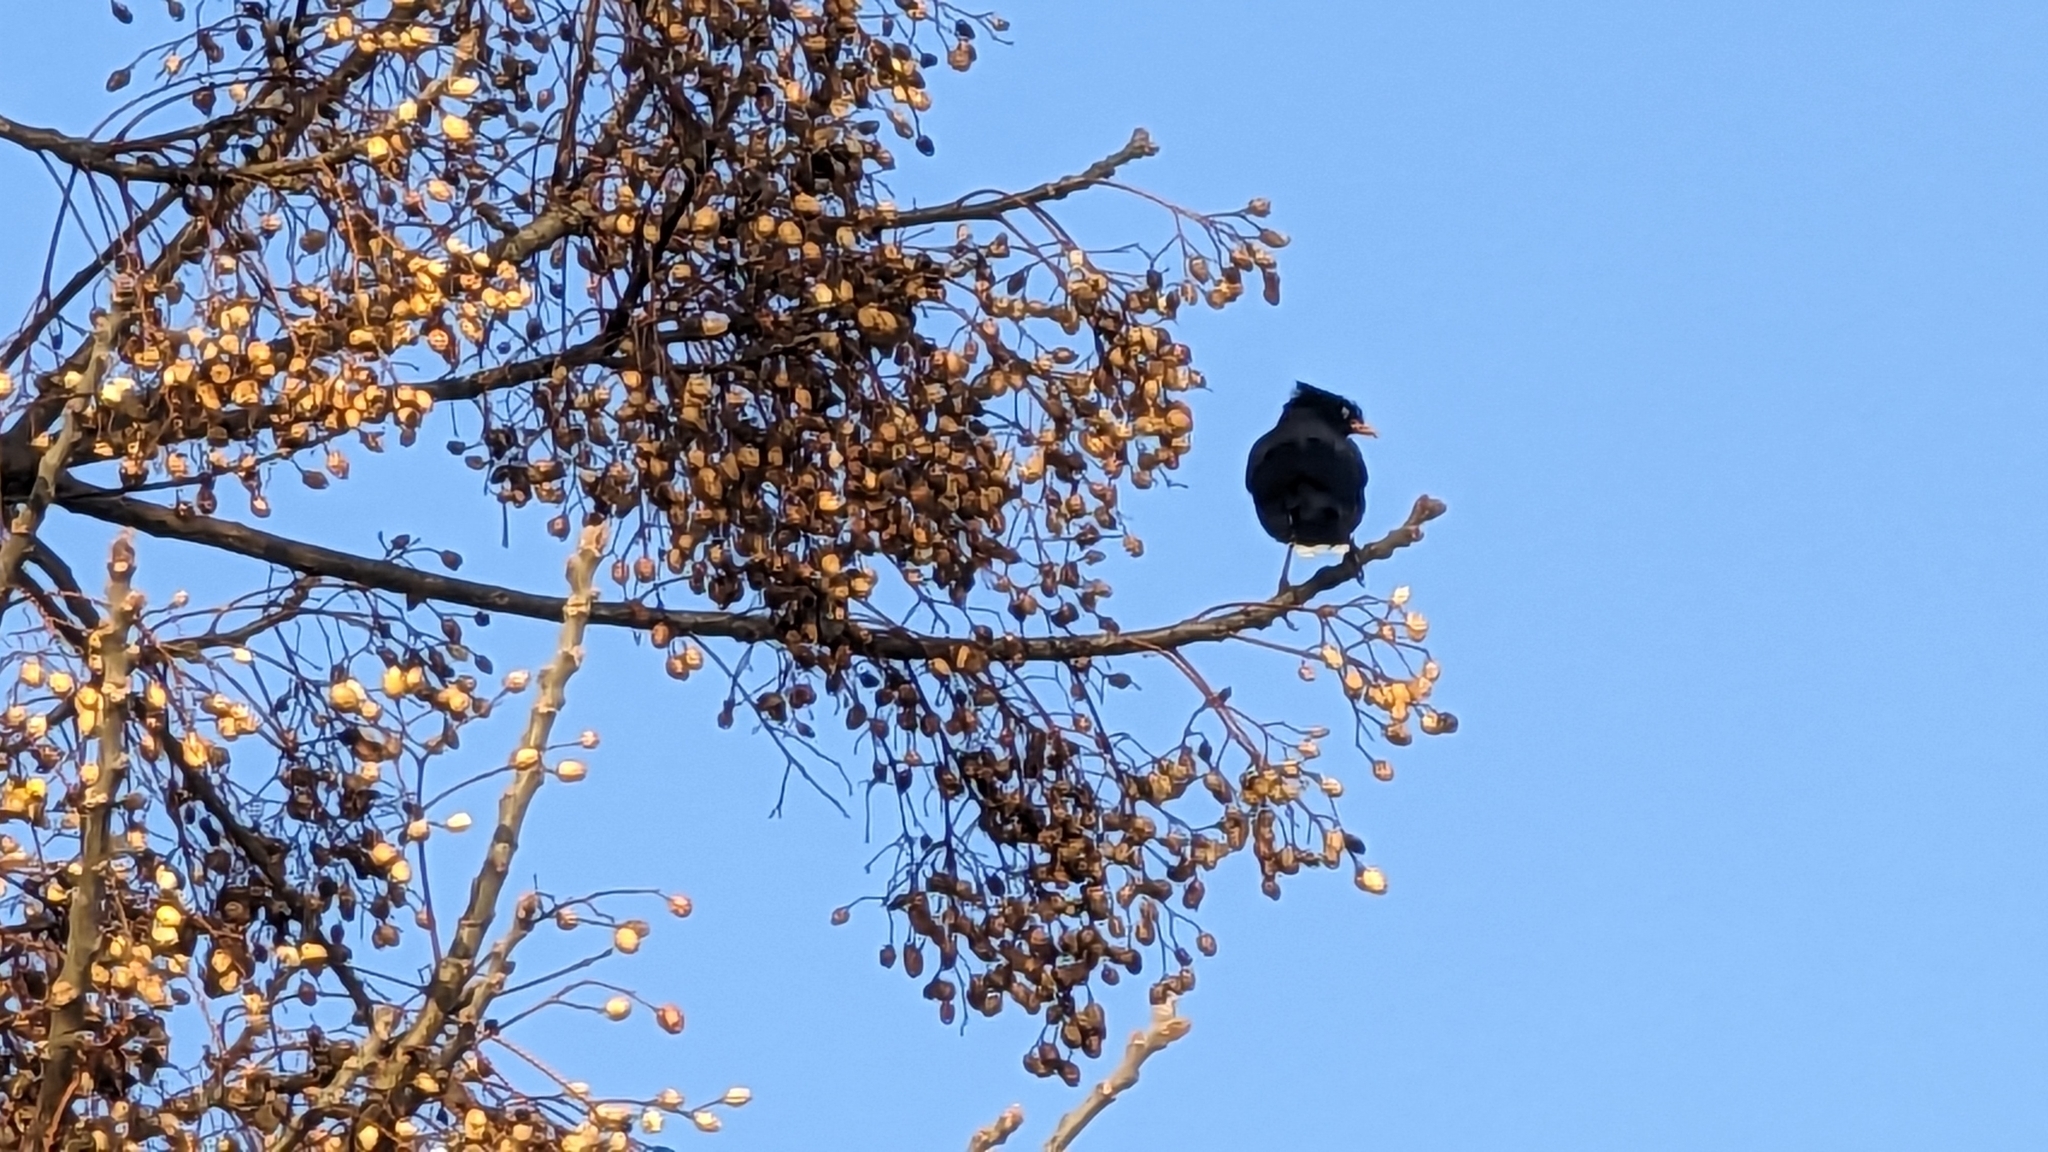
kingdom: Animalia
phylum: Chordata
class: Aves
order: Passeriformes
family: Sturnidae
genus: Acridotheres
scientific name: Acridotheres javanicus
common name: Javan myna
